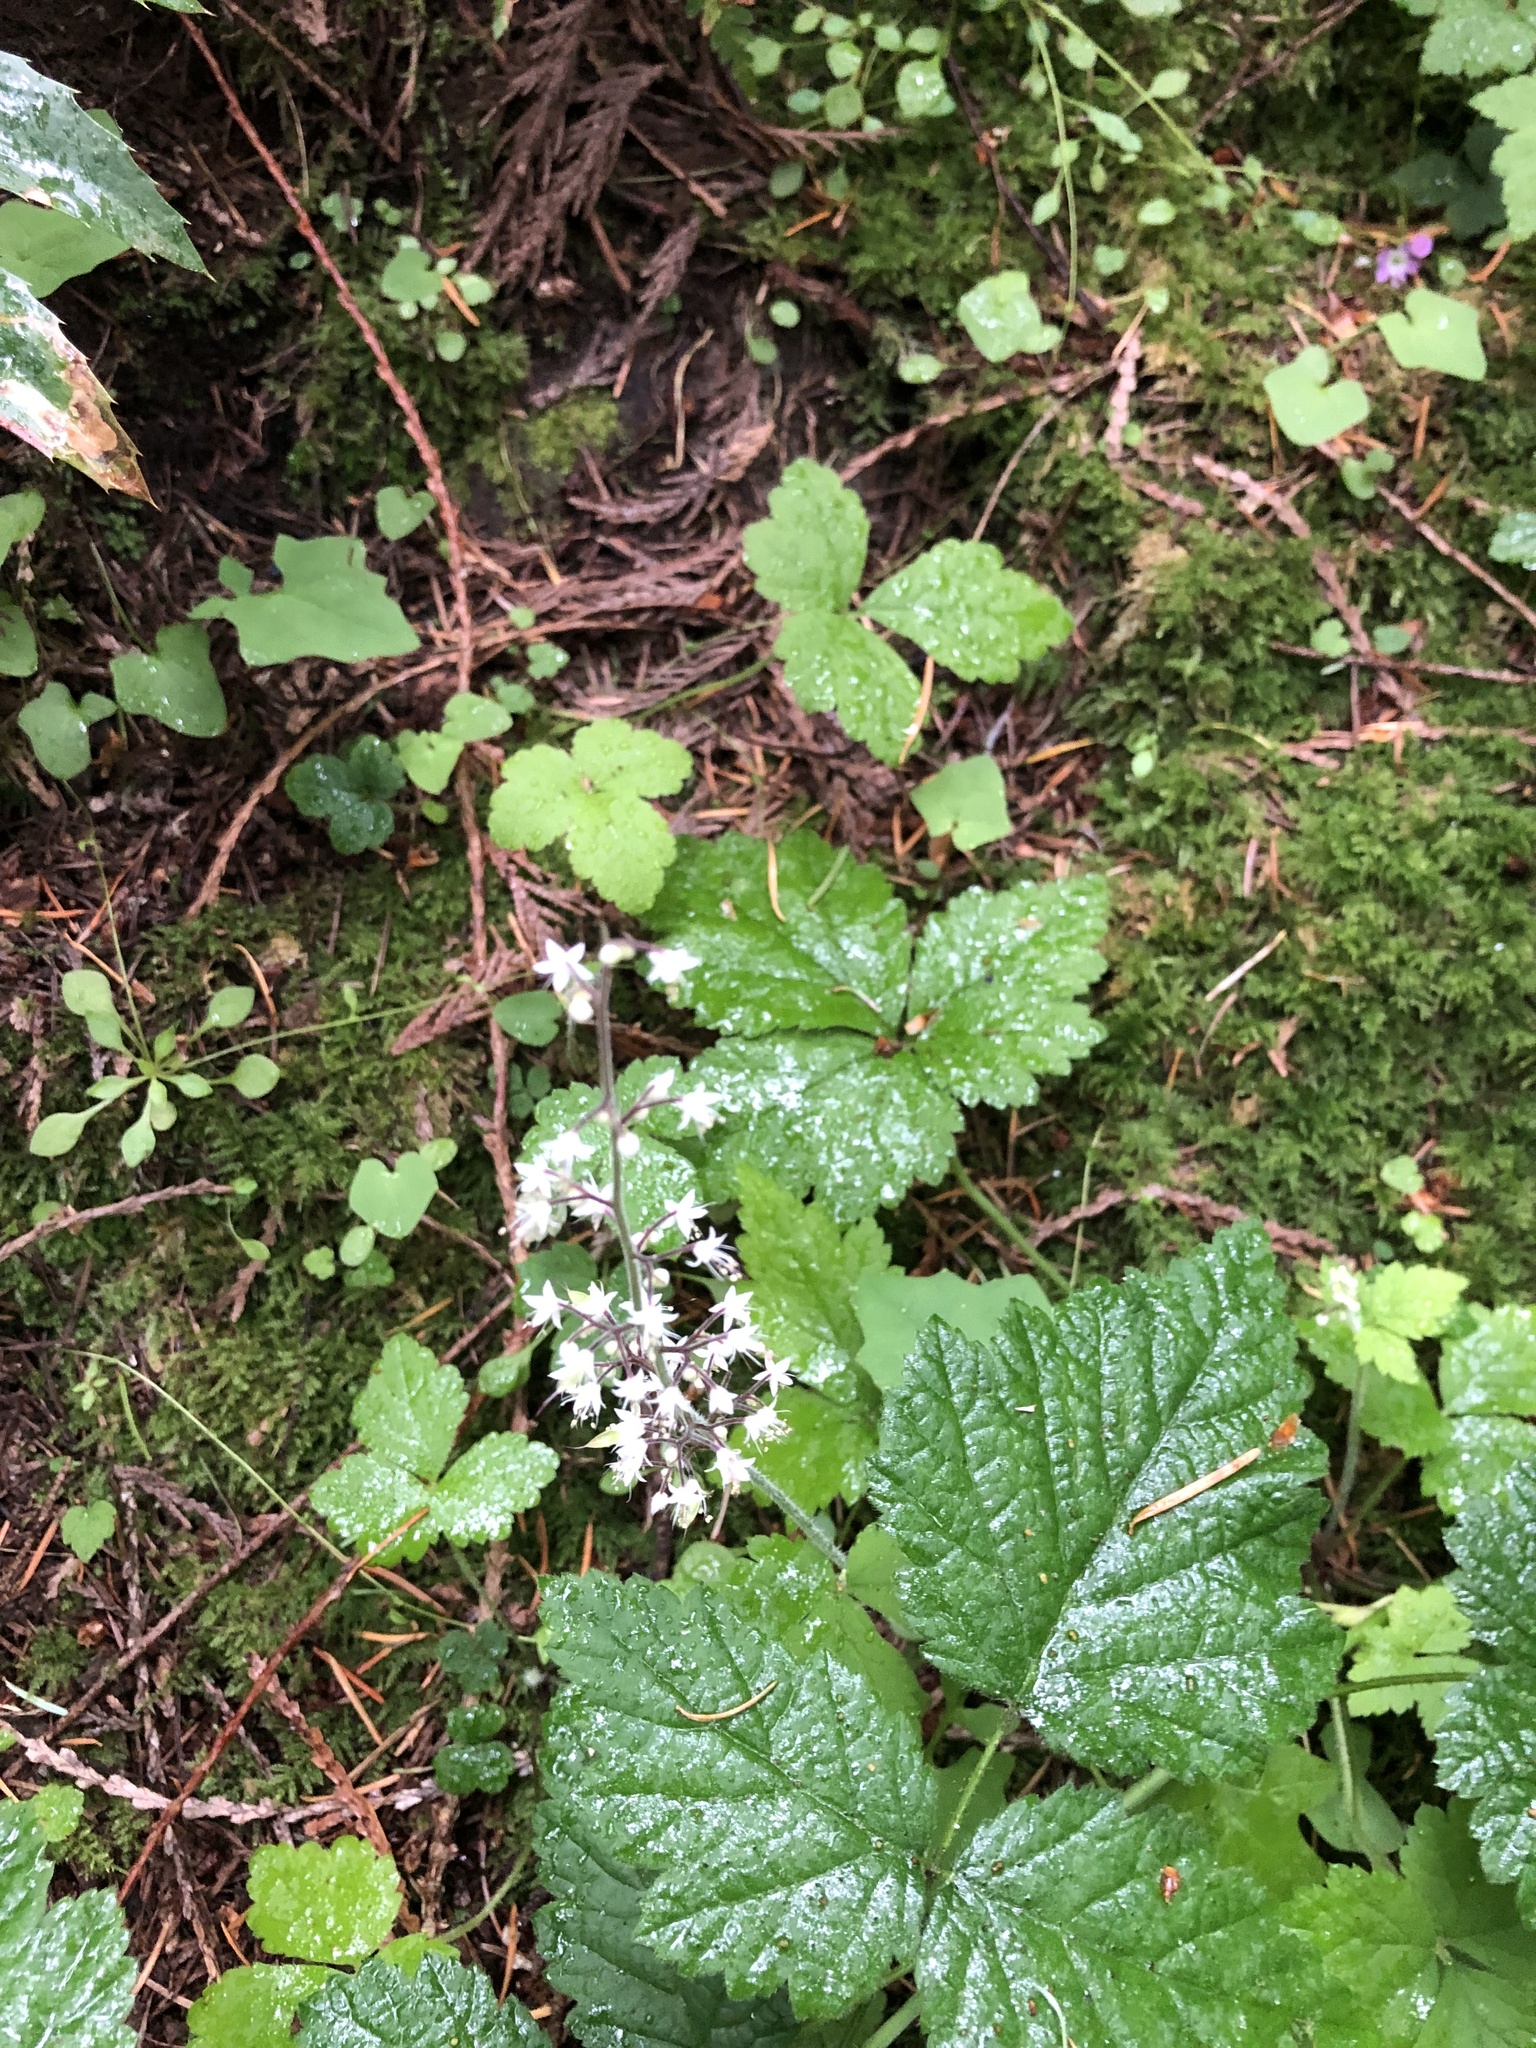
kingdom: Plantae
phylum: Tracheophyta
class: Magnoliopsida
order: Saxifragales
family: Saxifragaceae
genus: Tiarella
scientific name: Tiarella trifoliata
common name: Sugar-scoop
